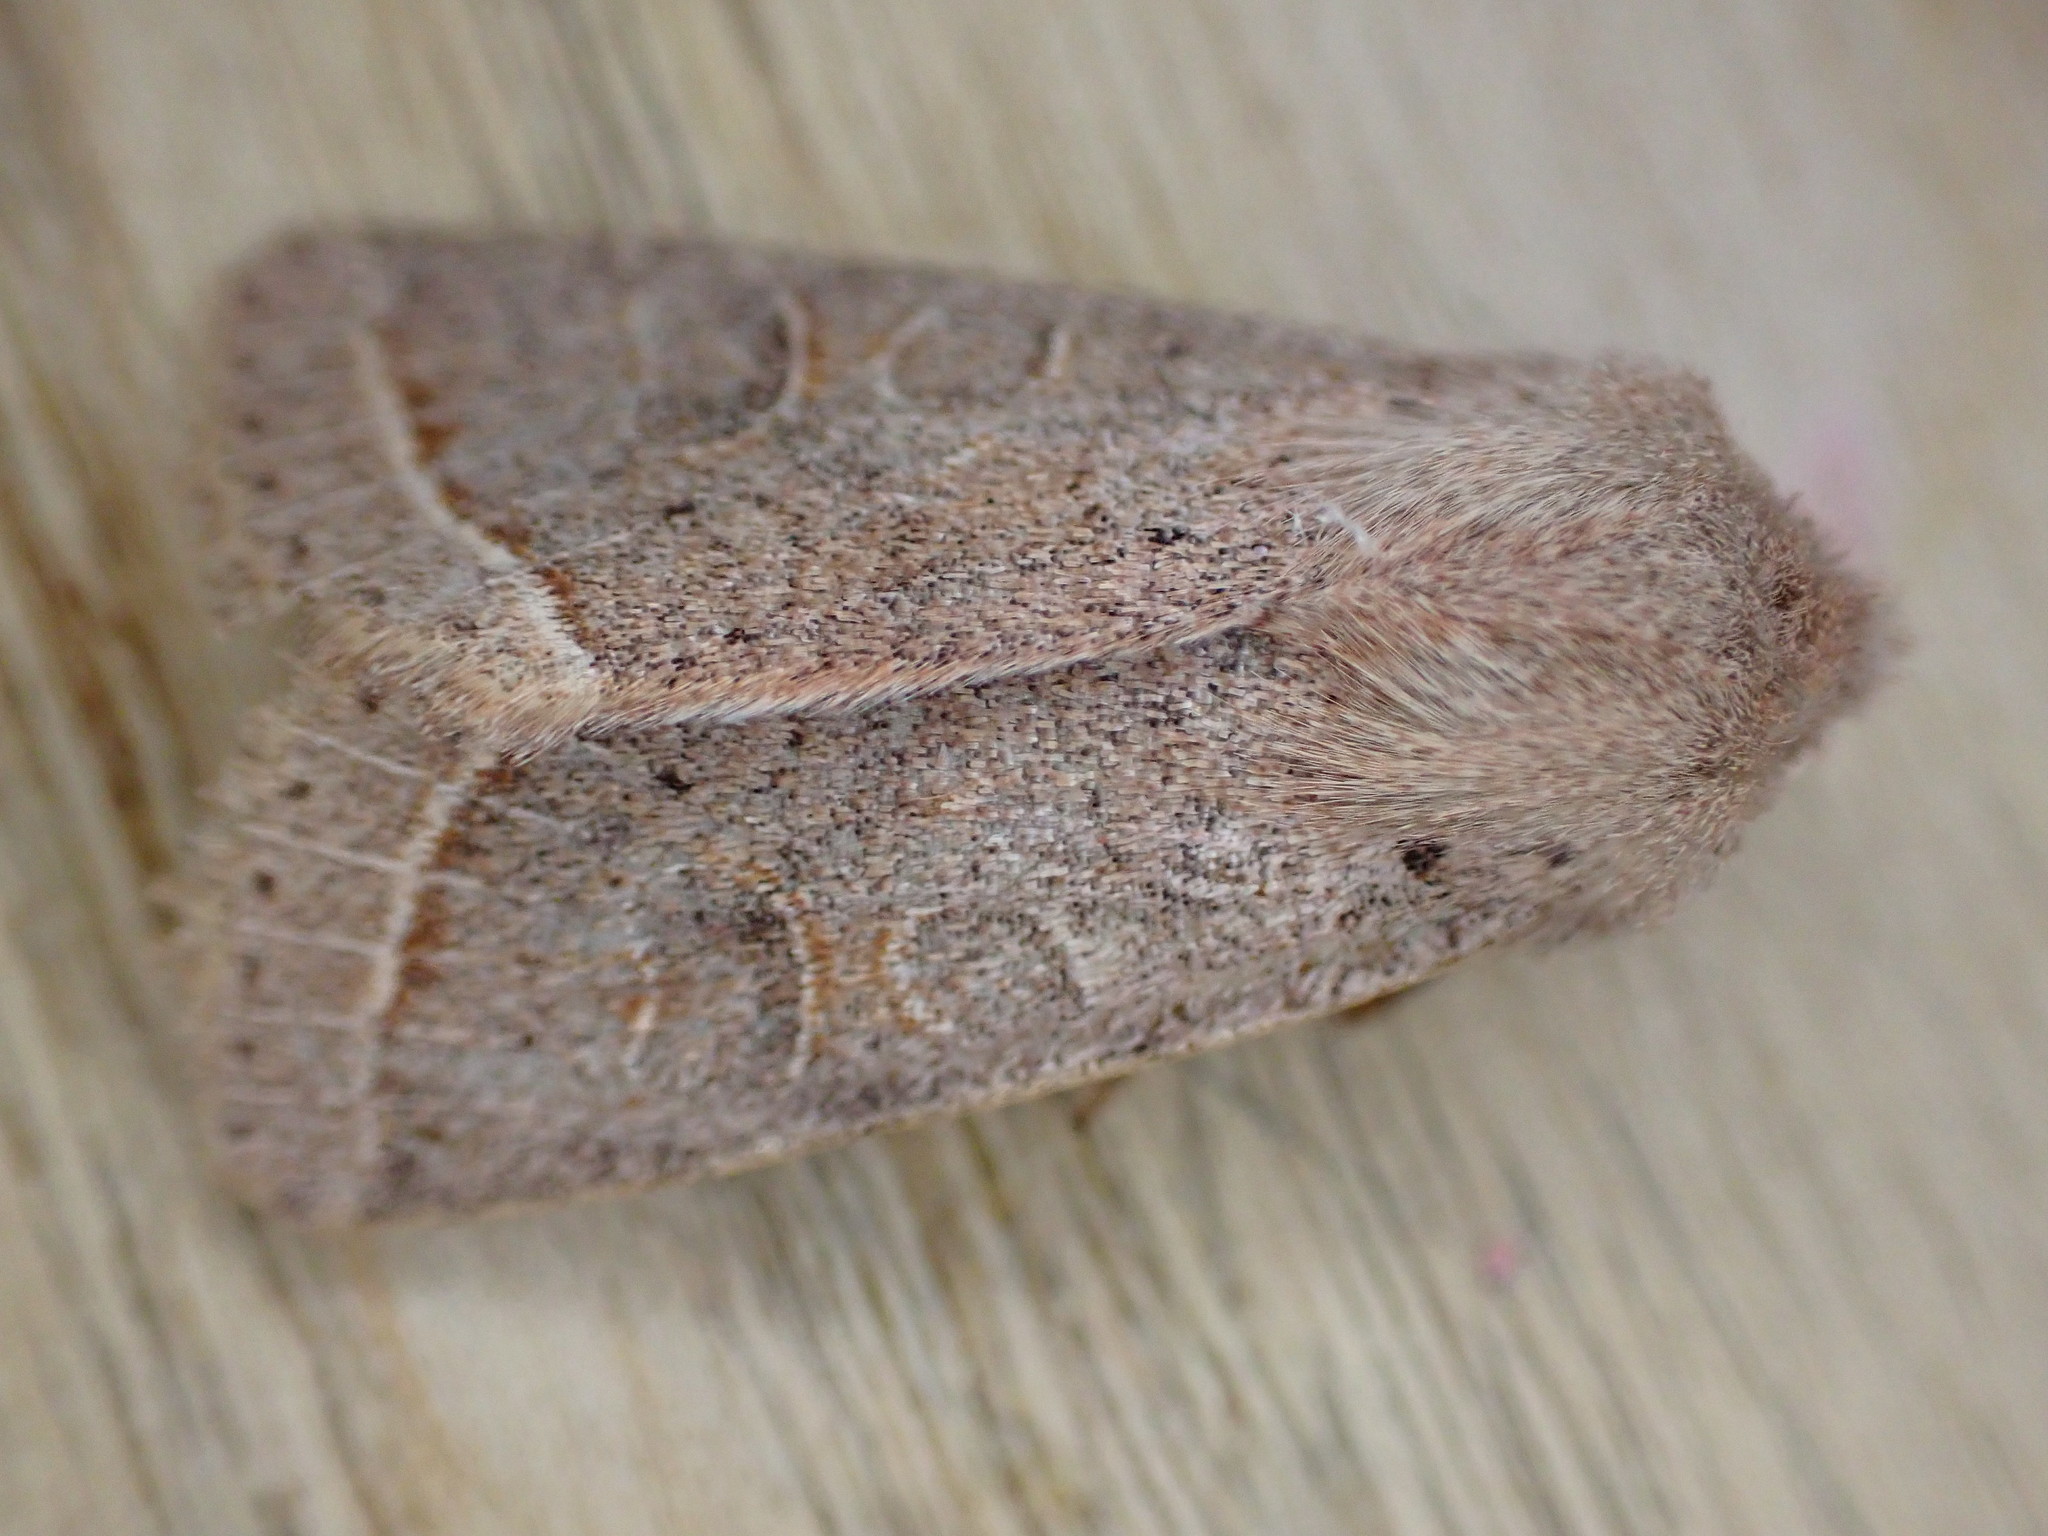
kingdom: Animalia
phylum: Arthropoda
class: Insecta
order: Lepidoptera
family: Noctuidae
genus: Orthosia
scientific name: Orthosia cerasi
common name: Common quaker
